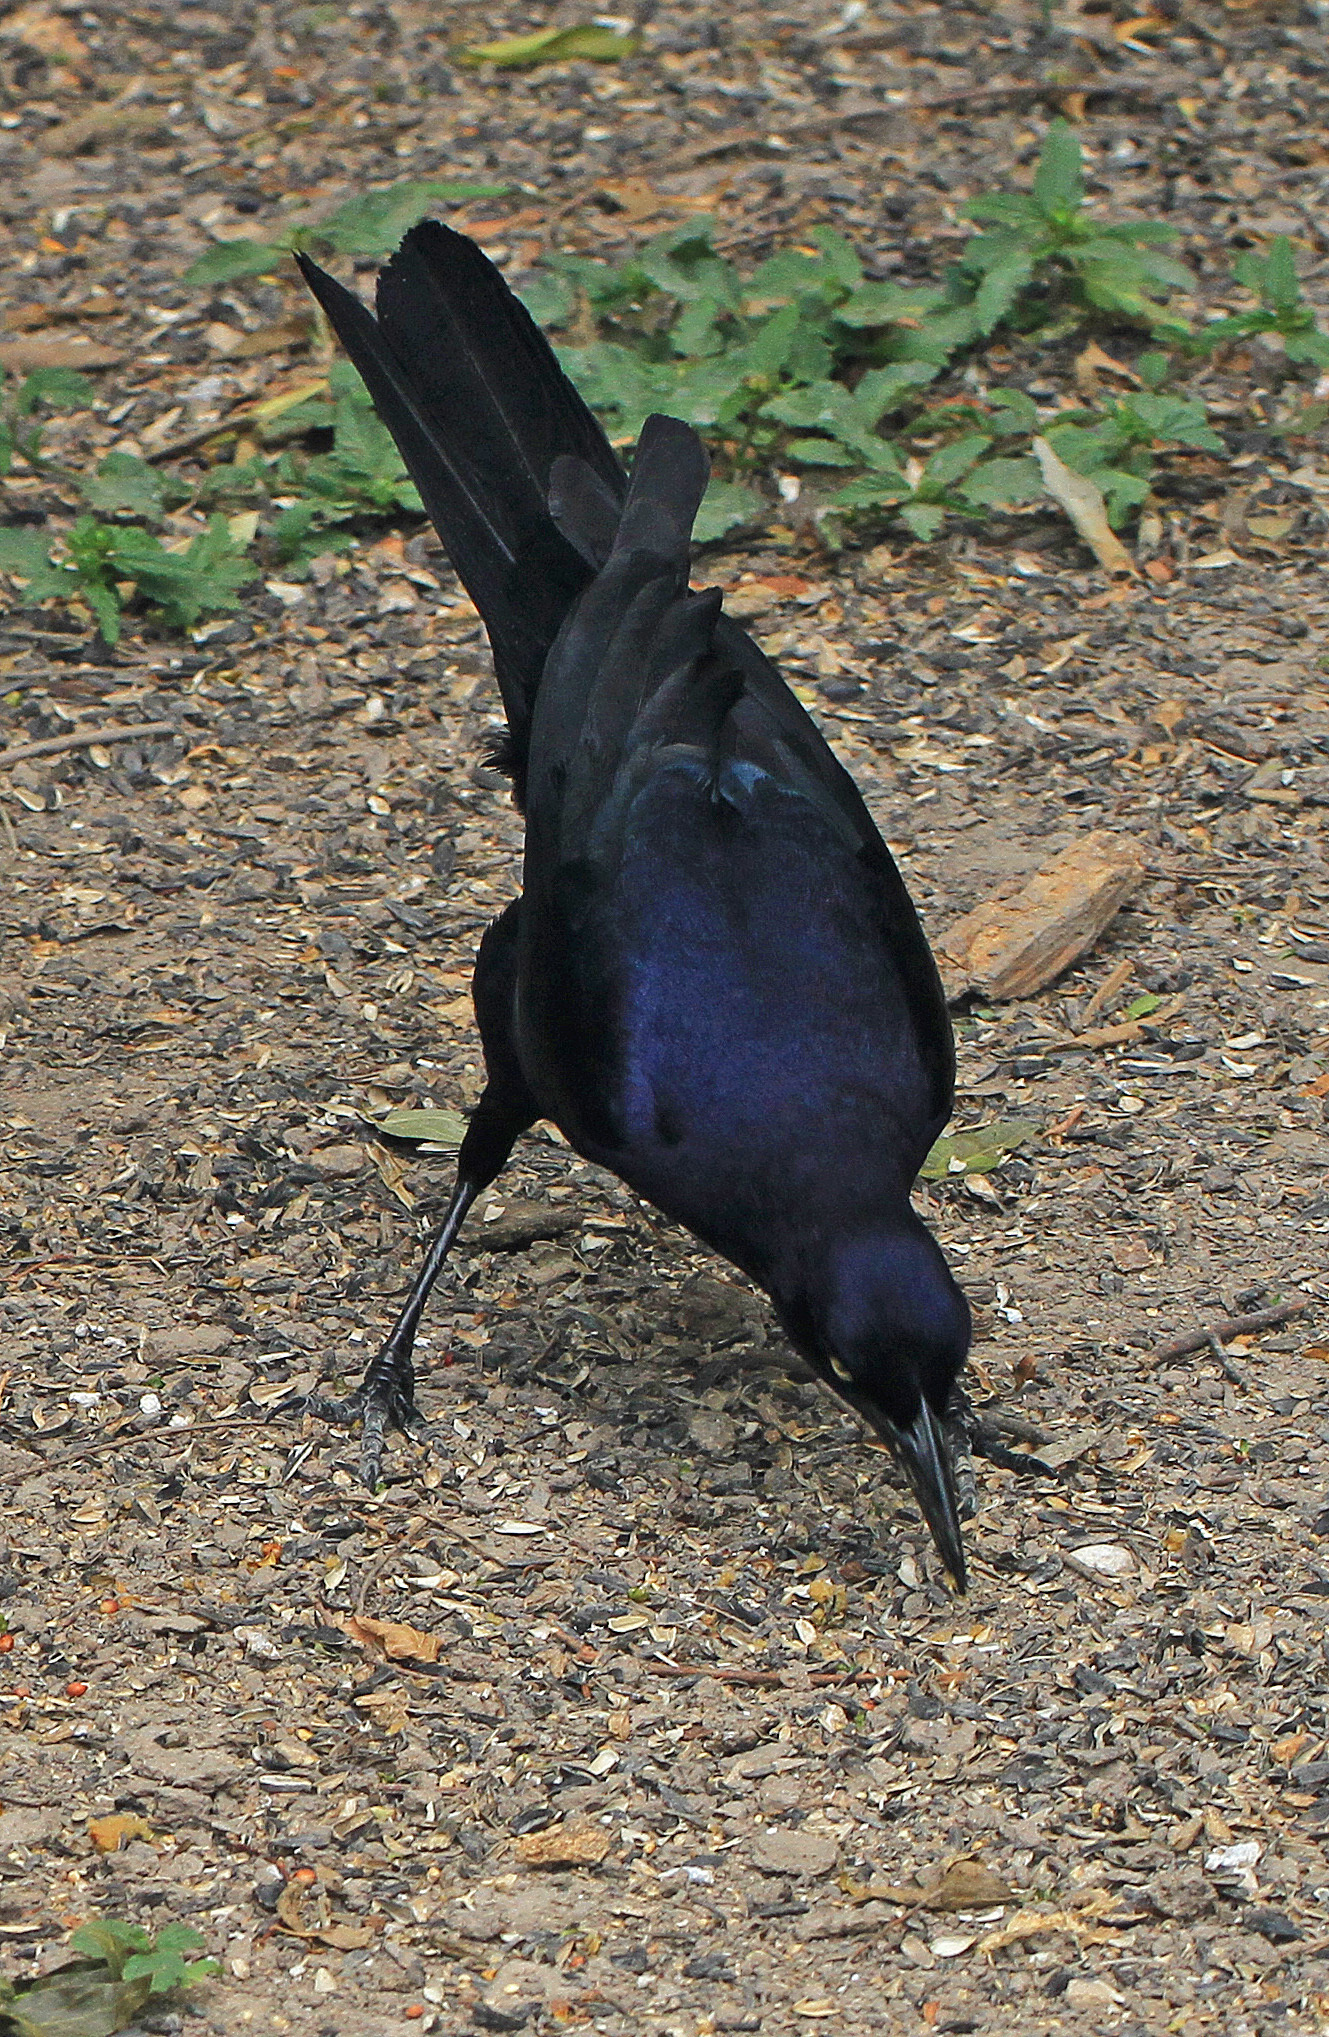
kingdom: Animalia
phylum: Chordata
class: Aves
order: Passeriformes
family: Icteridae
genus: Quiscalus
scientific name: Quiscalus mexicanus
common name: Great-tailed grackle
